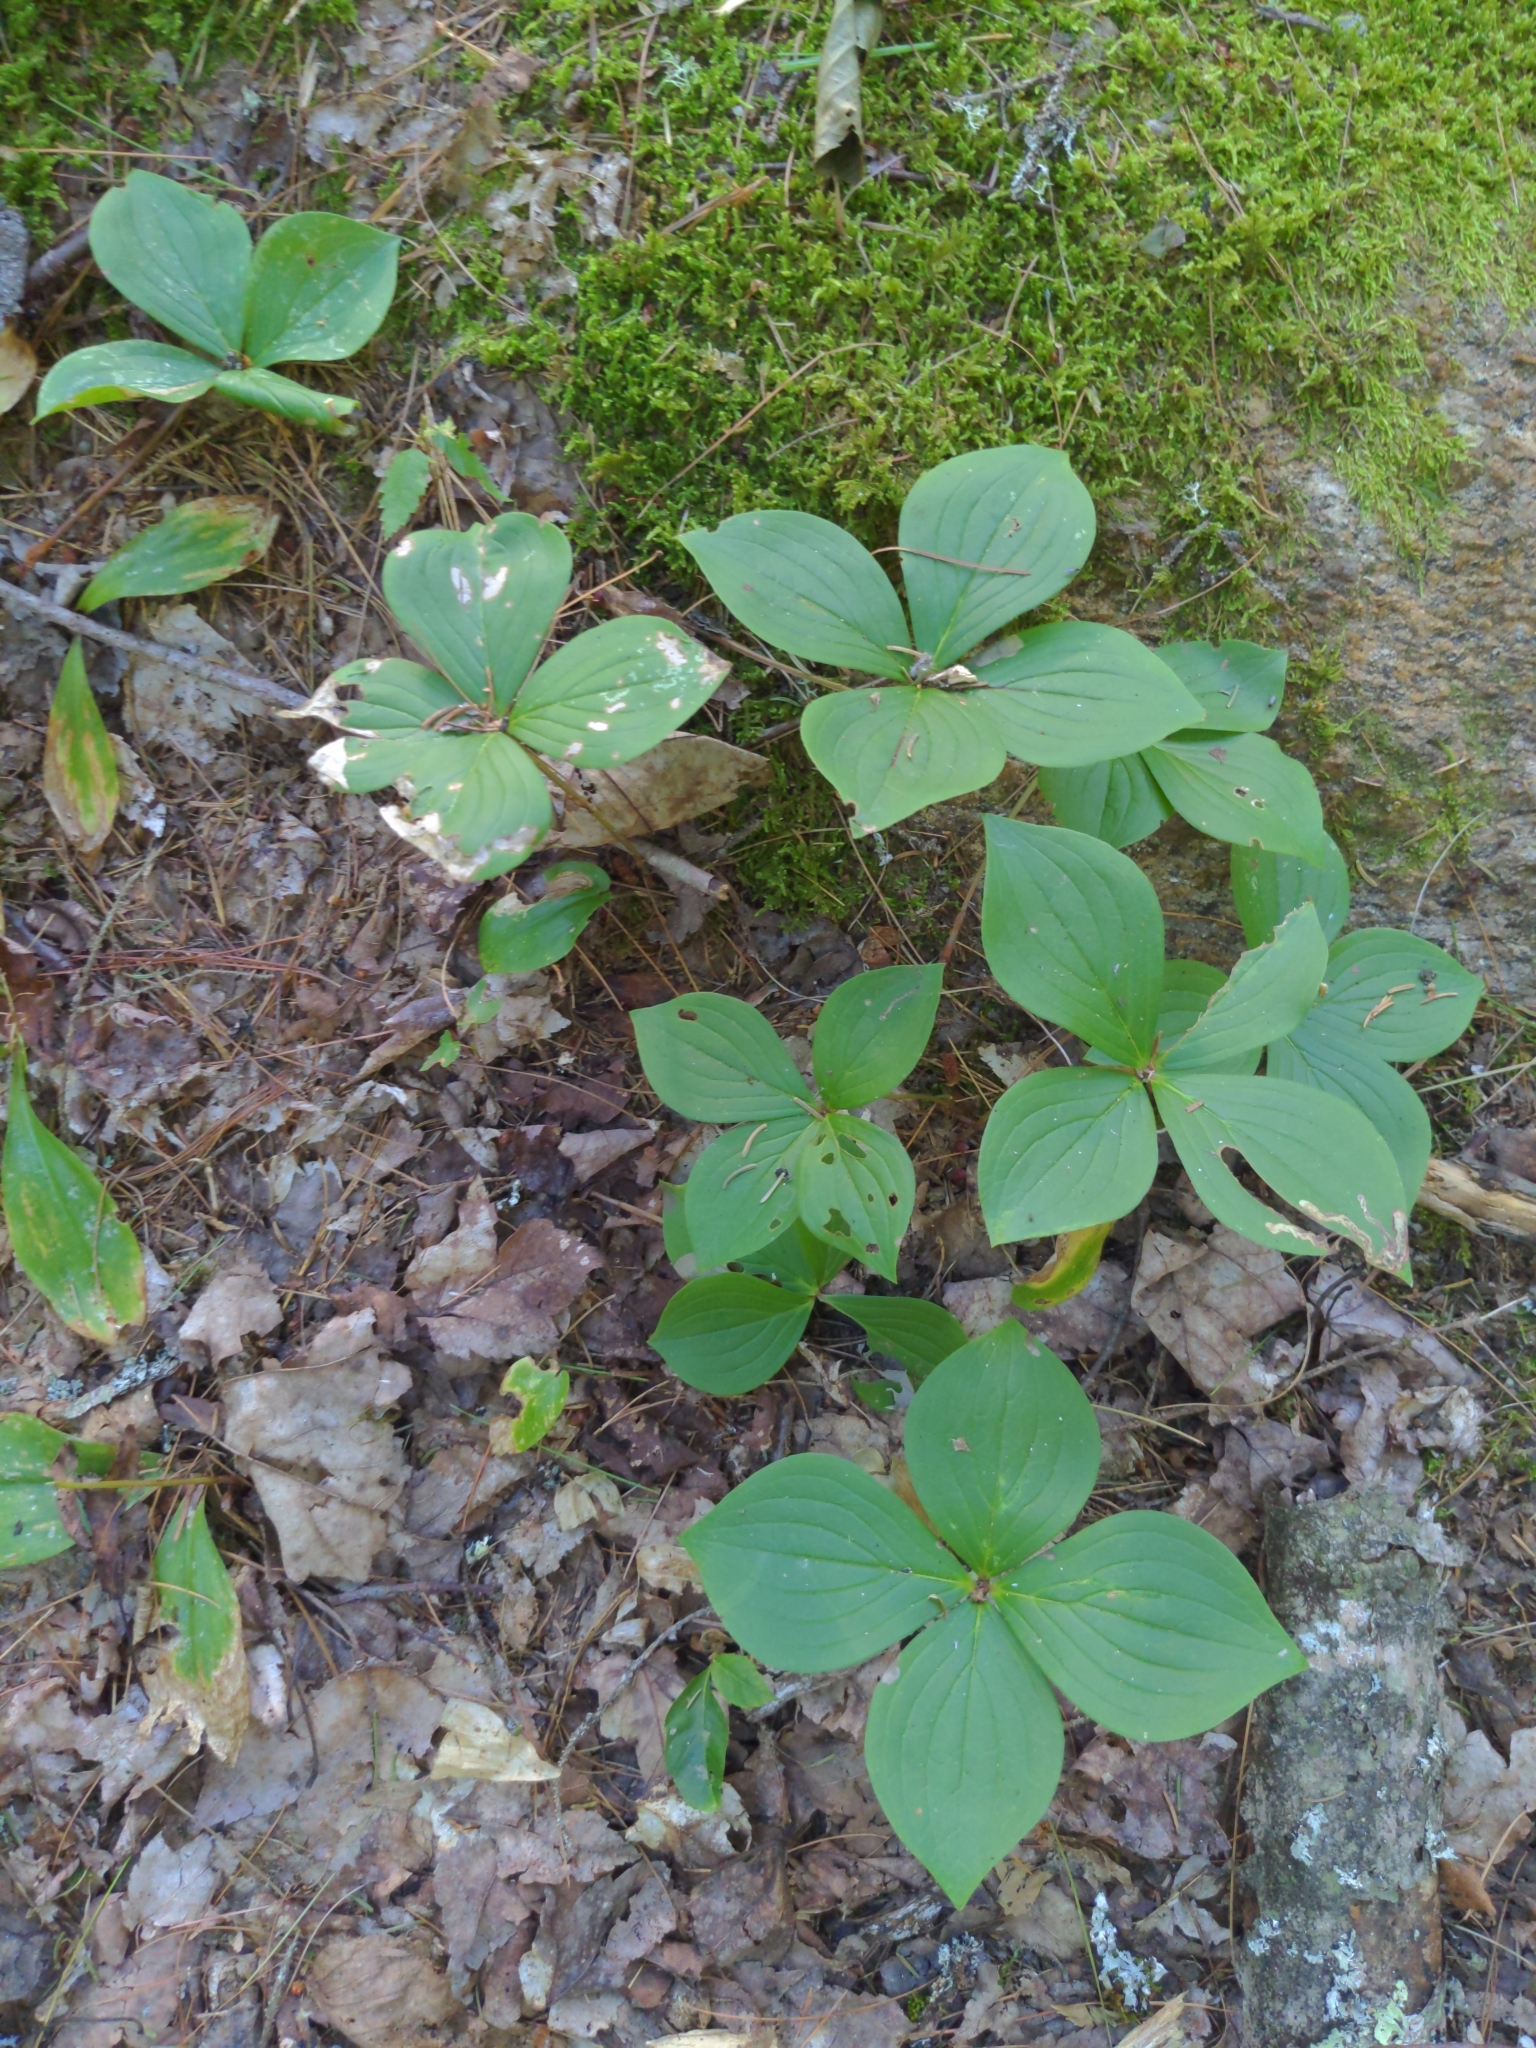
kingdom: Plantae
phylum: Tracheophyta
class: Magnoliopsida
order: Cornales
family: Cornaceae
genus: Cornus
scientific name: Cornus canadensis
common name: Creeping dogwood
